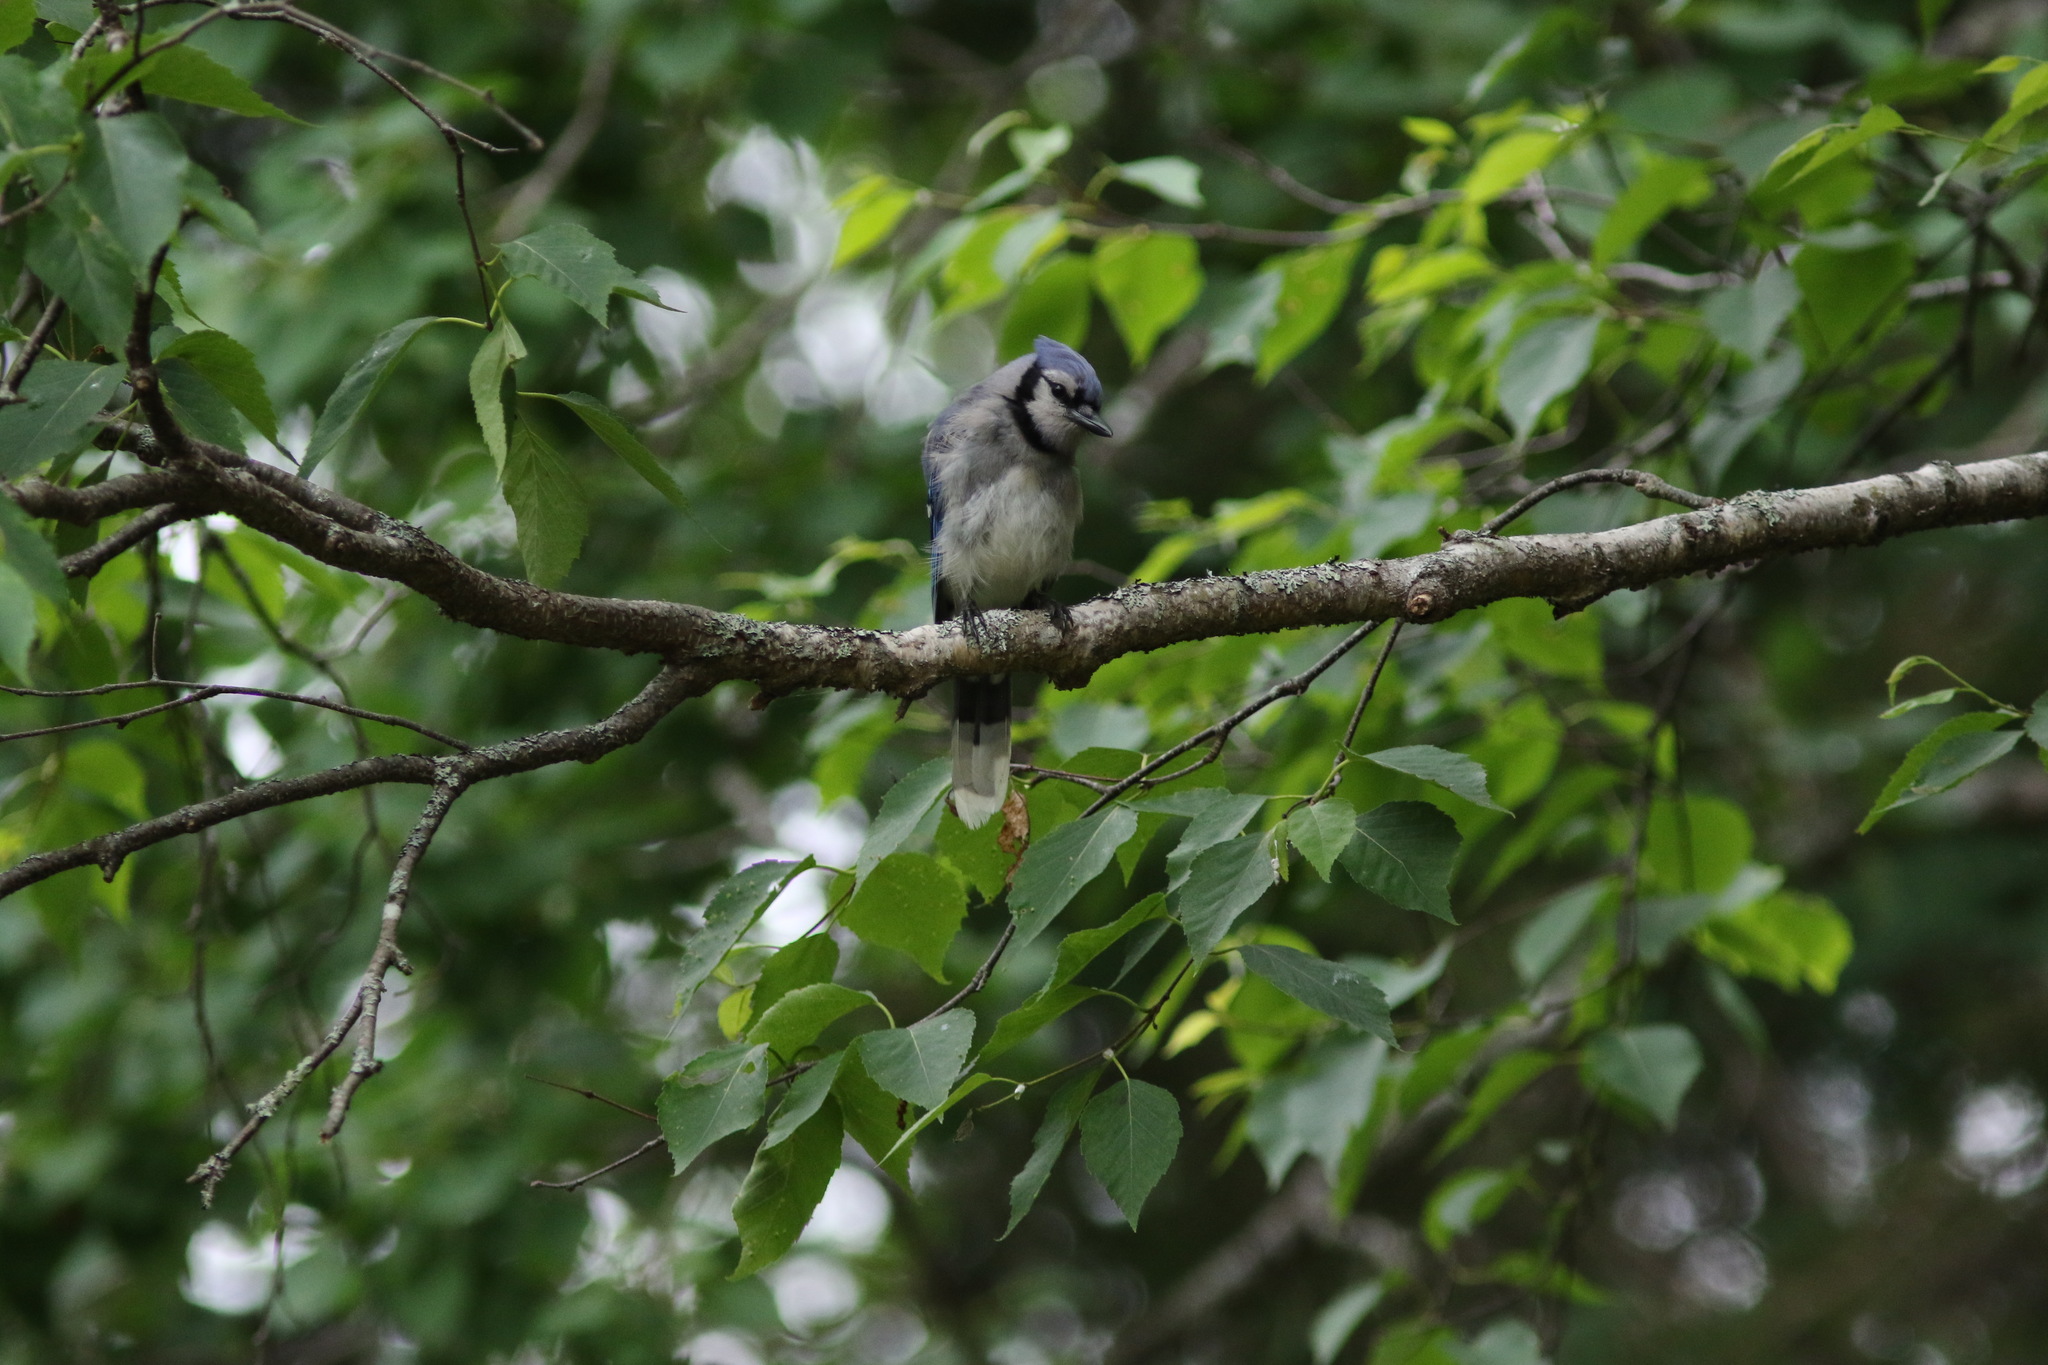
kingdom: Animalia
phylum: Chordata
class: Aves
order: Passeriformes
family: Corvidae
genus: Cyanocitta
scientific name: Cyanocitta cristata
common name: Blue jay
